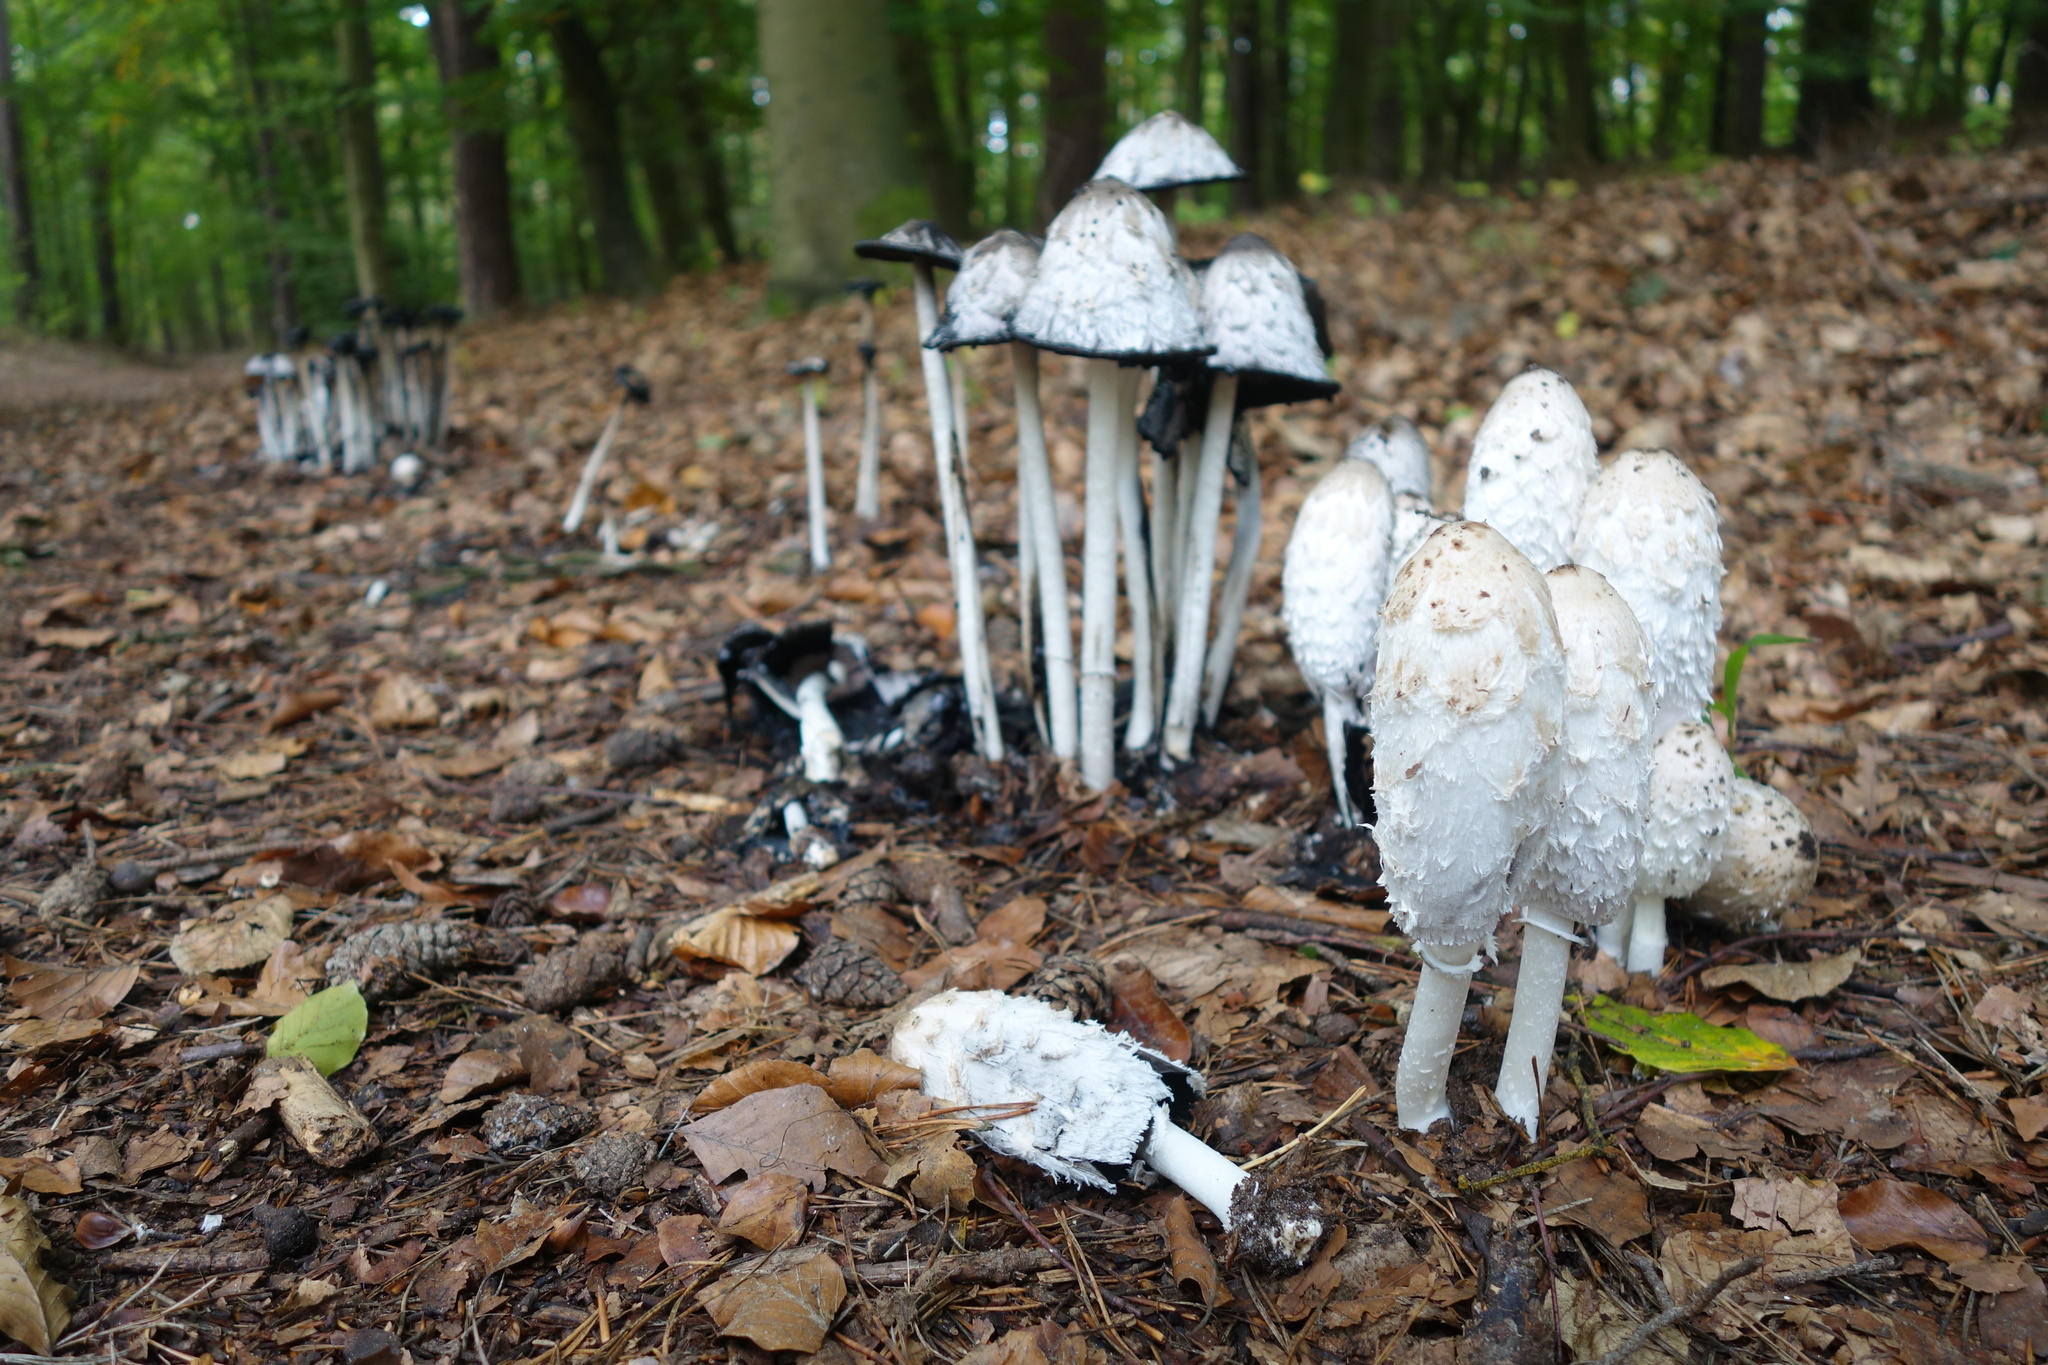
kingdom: Fungi
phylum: Basidiomycota
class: Agaricomycetes
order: Agaricales
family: Agaricaceae
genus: Coprinus
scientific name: Coprinus comatus
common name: Lawyer's wig
